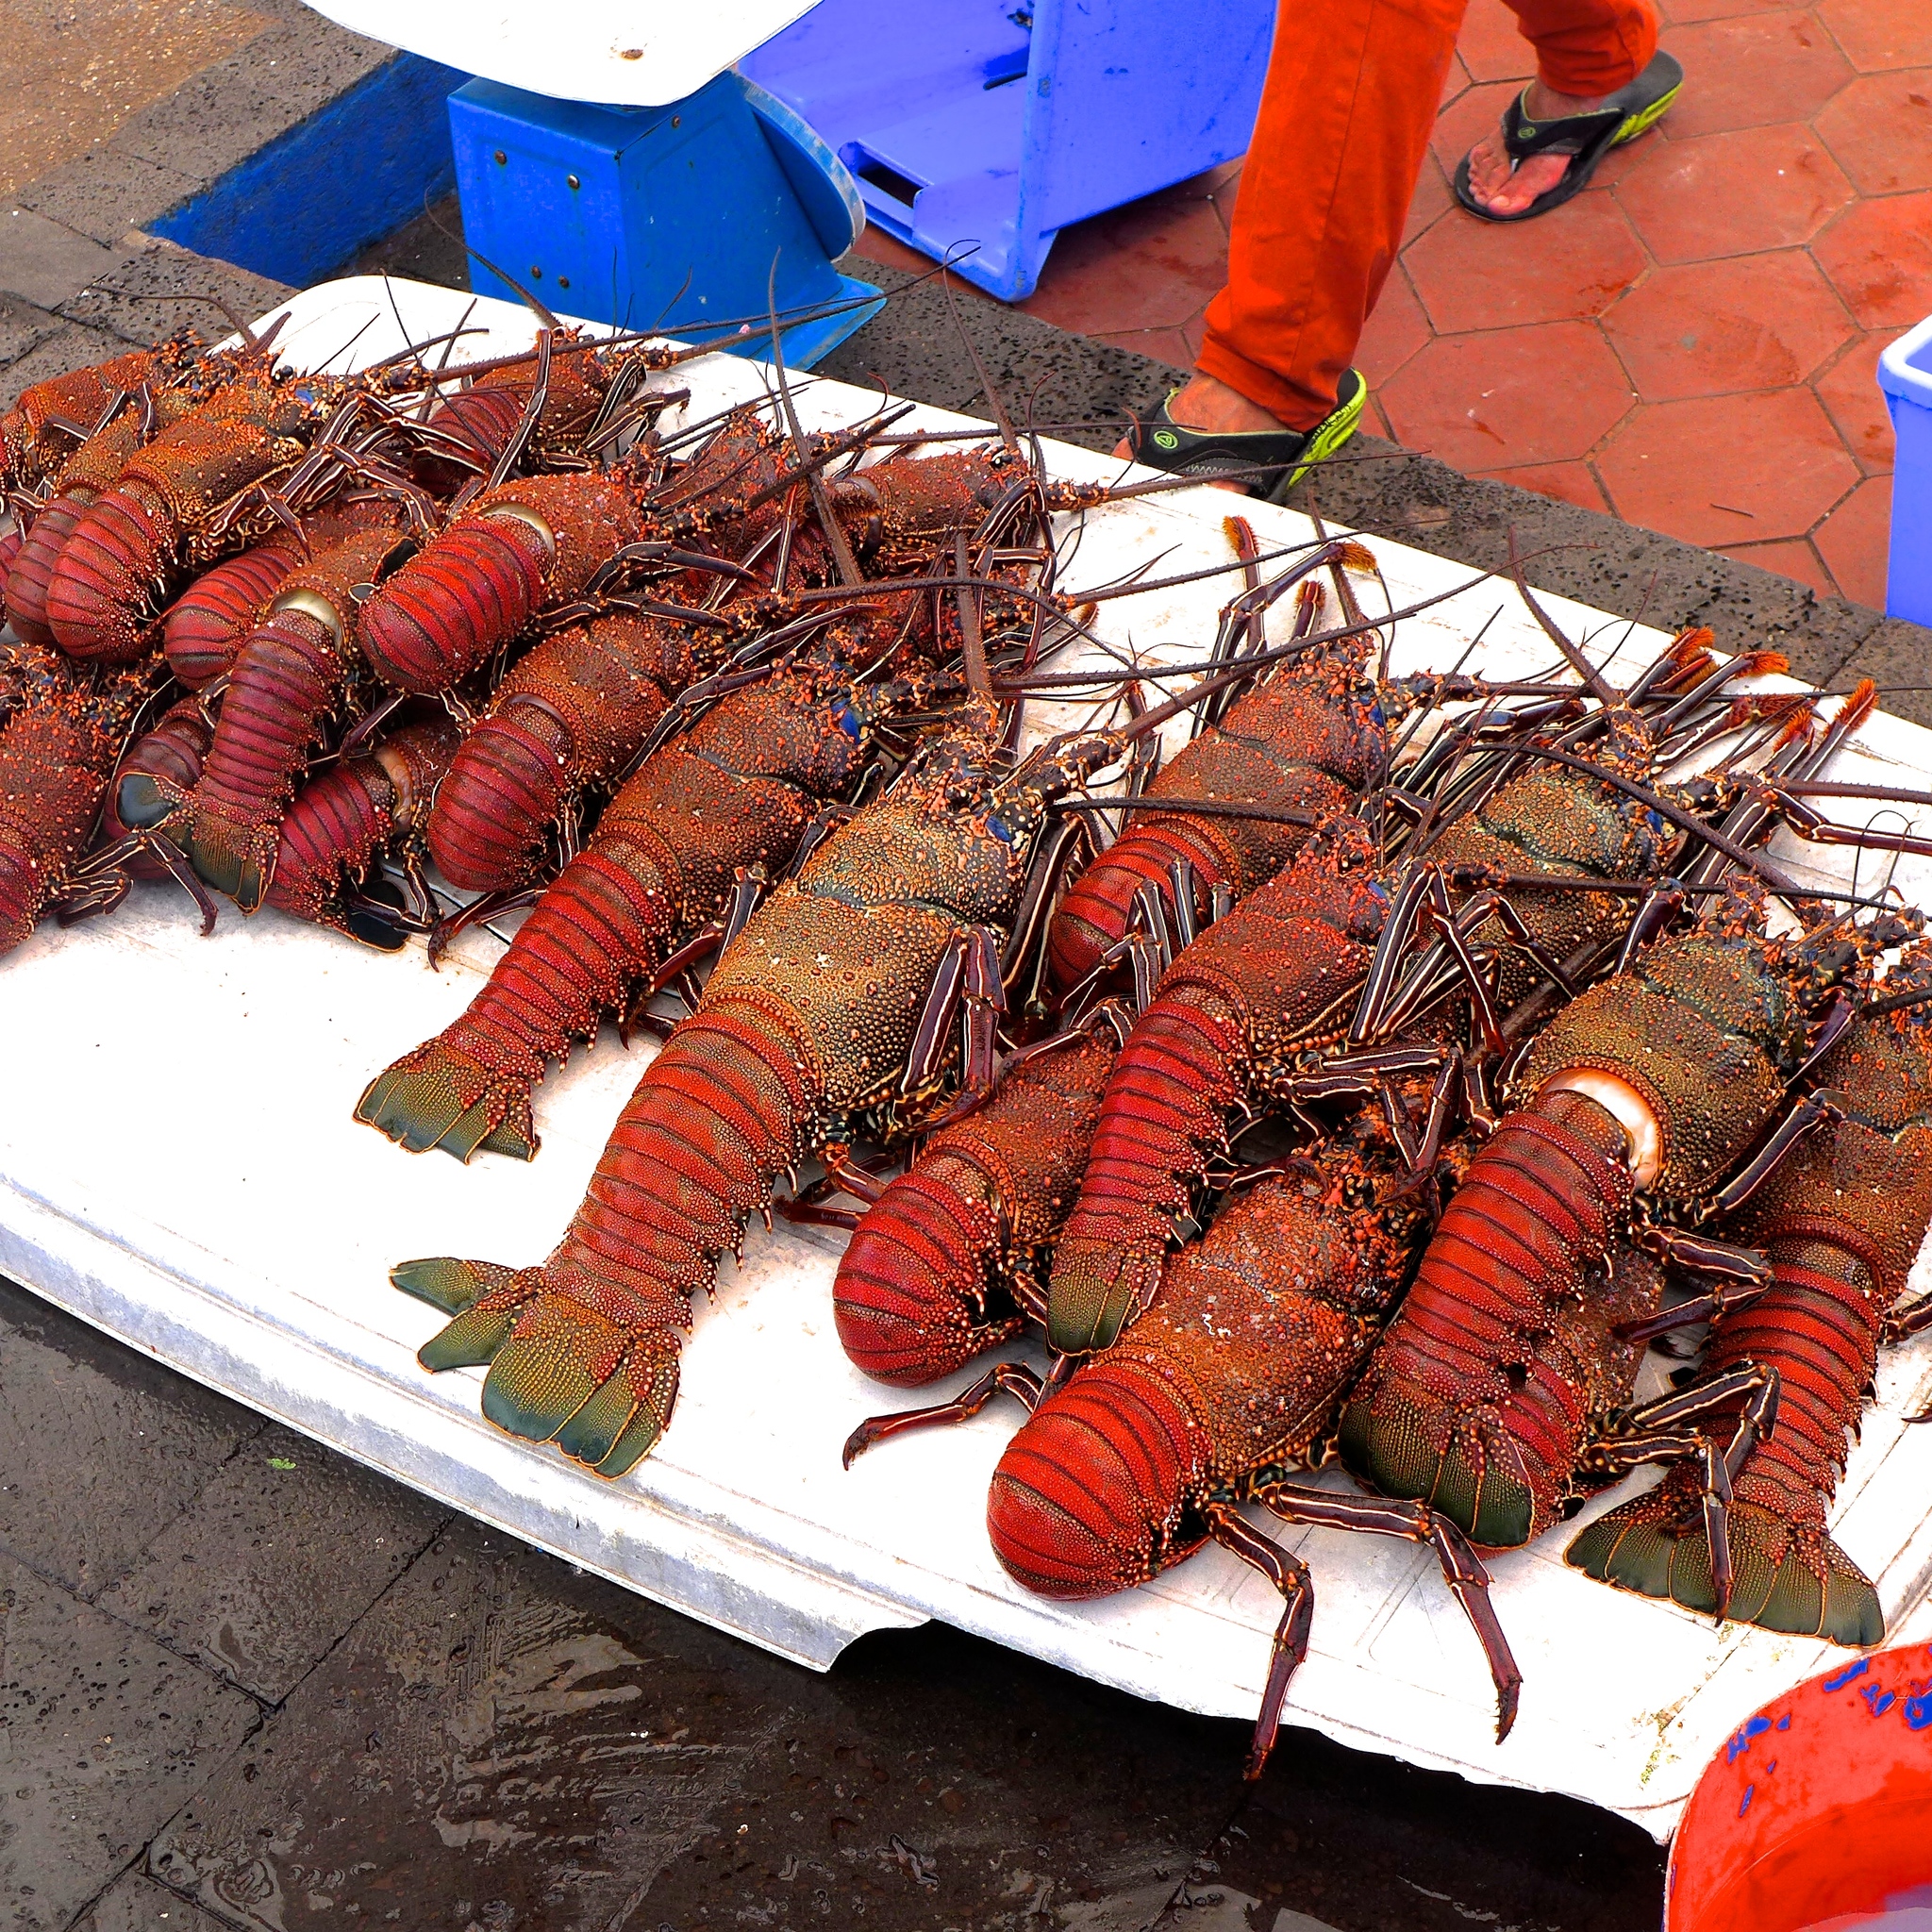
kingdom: Animalia
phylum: Arthropoda
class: Malacostraca
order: Decapoda
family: Palinuridae
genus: Panulirus
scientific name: Panulirus penicillatus
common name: Pronghorn spiny lobster
